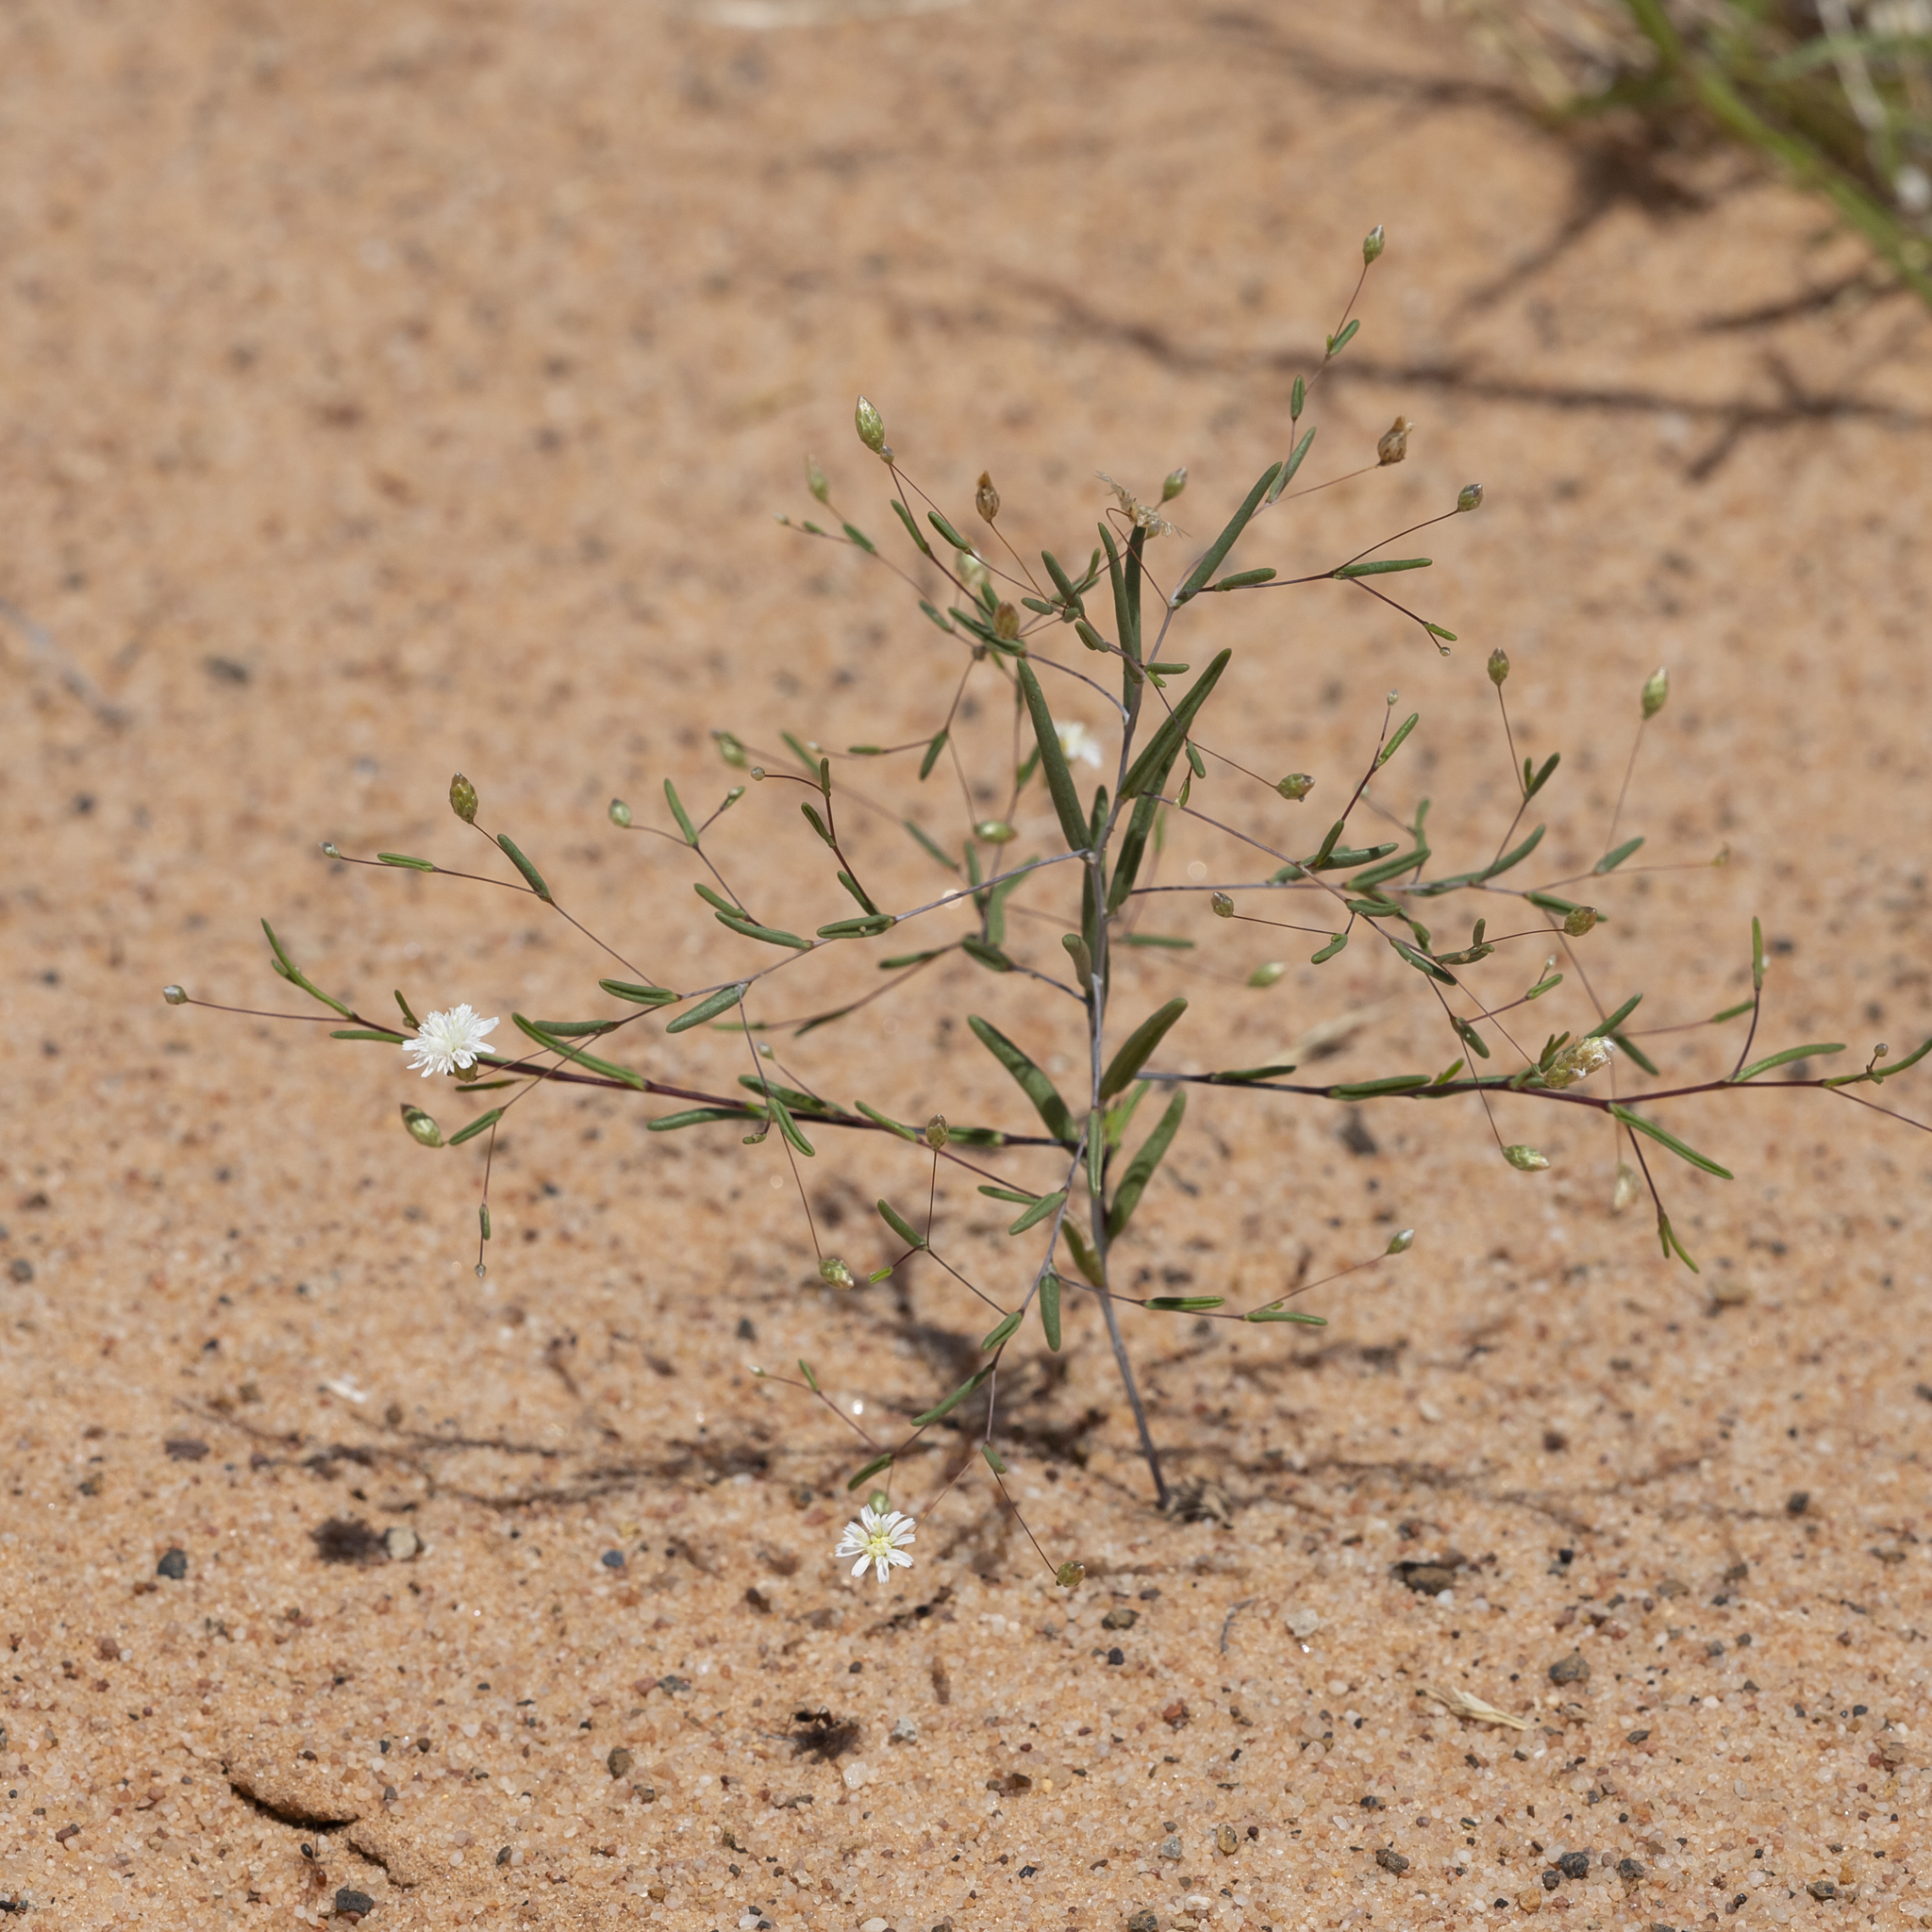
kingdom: Plantae
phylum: Tracheophyta
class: Magnoliopsida
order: Asterales
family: Asteraceae
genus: Siemssenia
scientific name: Siemssenia capillaris
